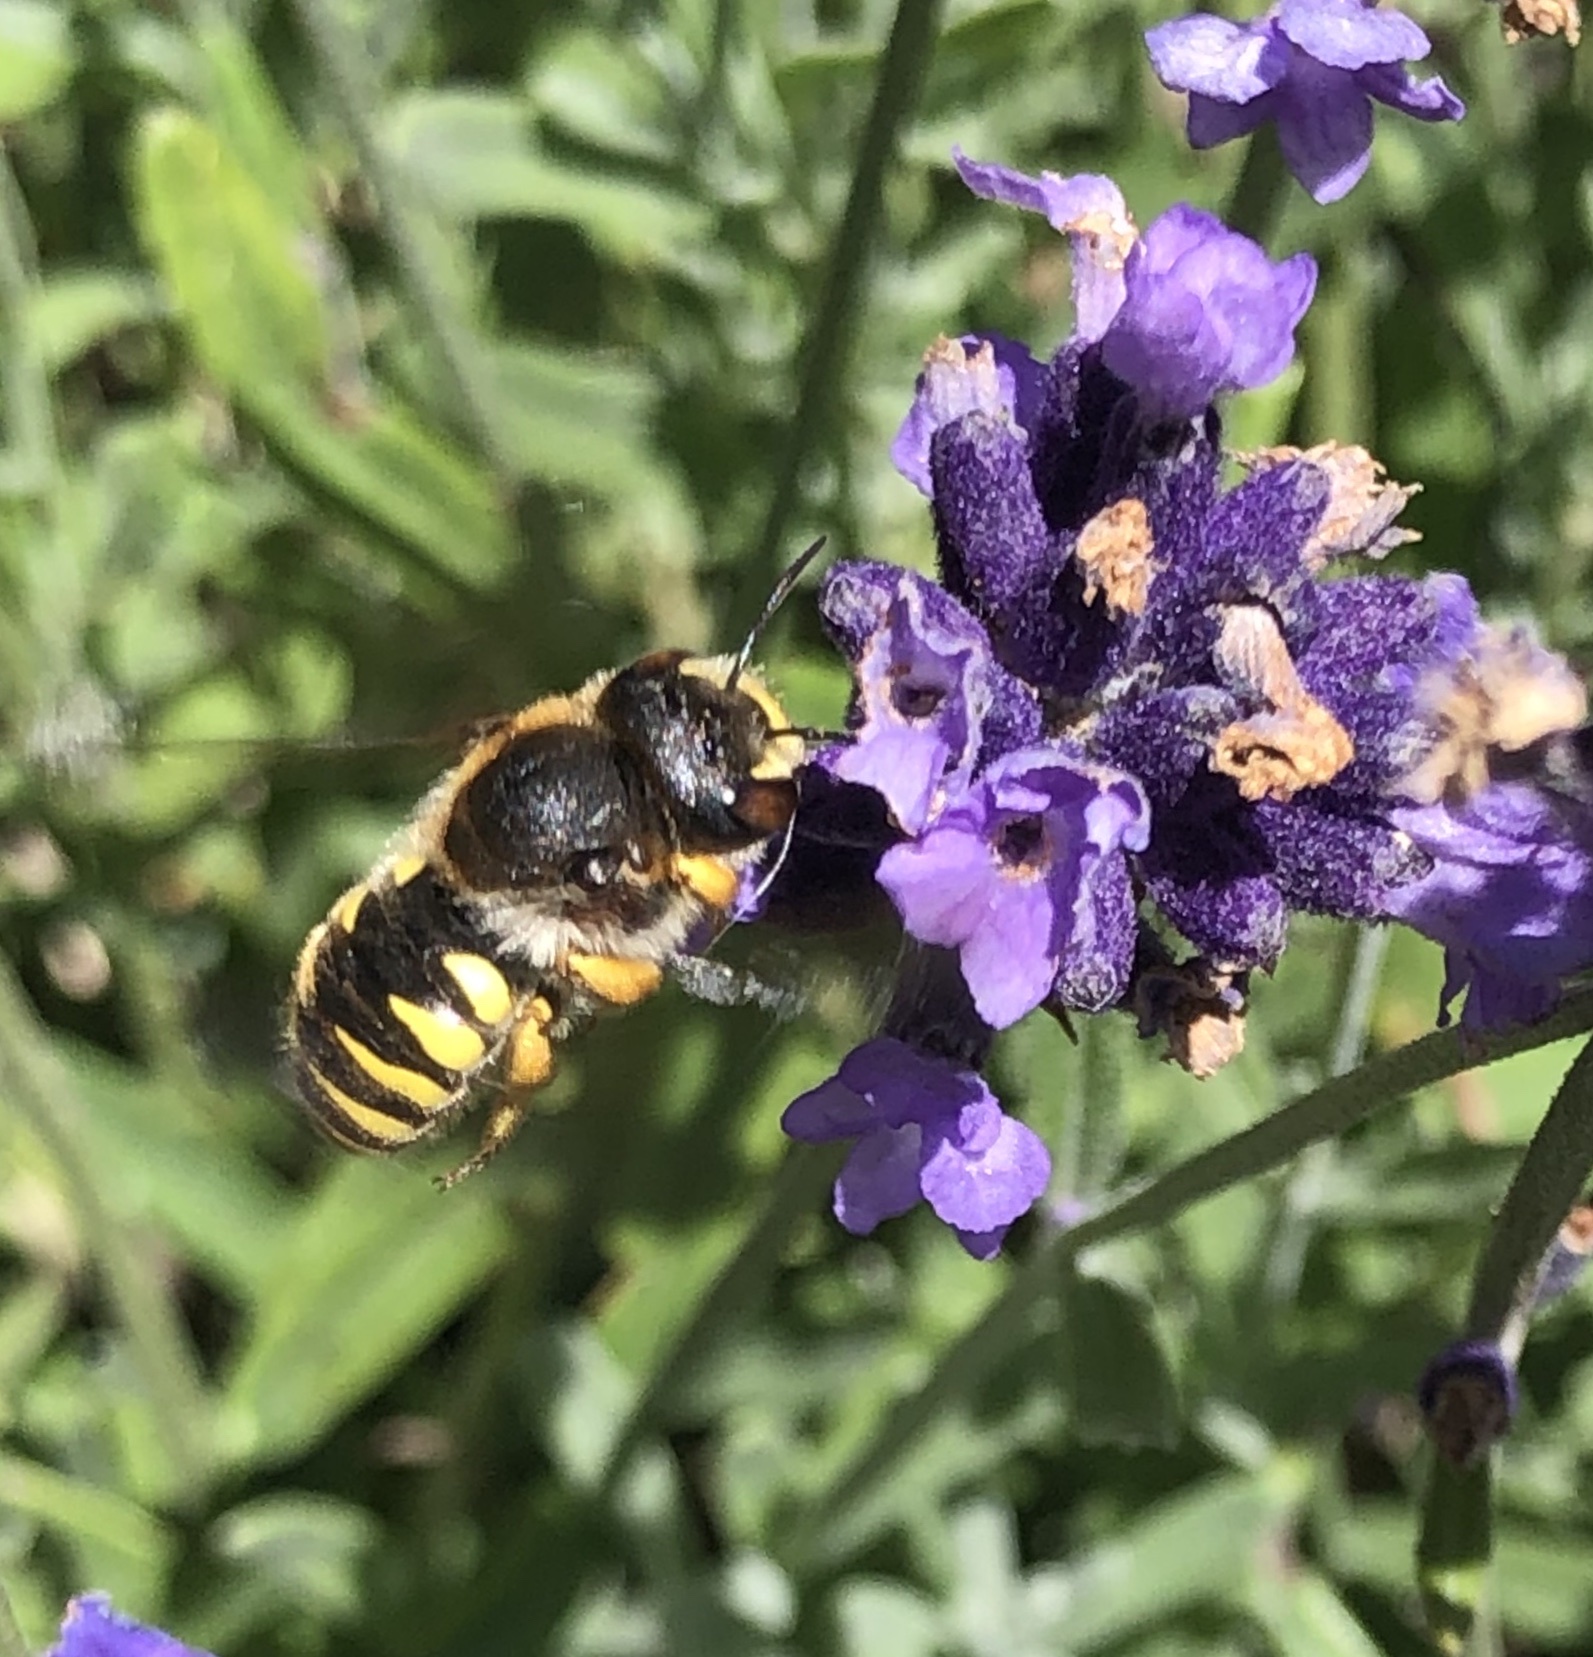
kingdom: Animalia
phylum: Arthropoda
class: Insecta
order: Hymenoptera
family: Megachilidae
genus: Trachusa
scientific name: Trachusa laeviventris
